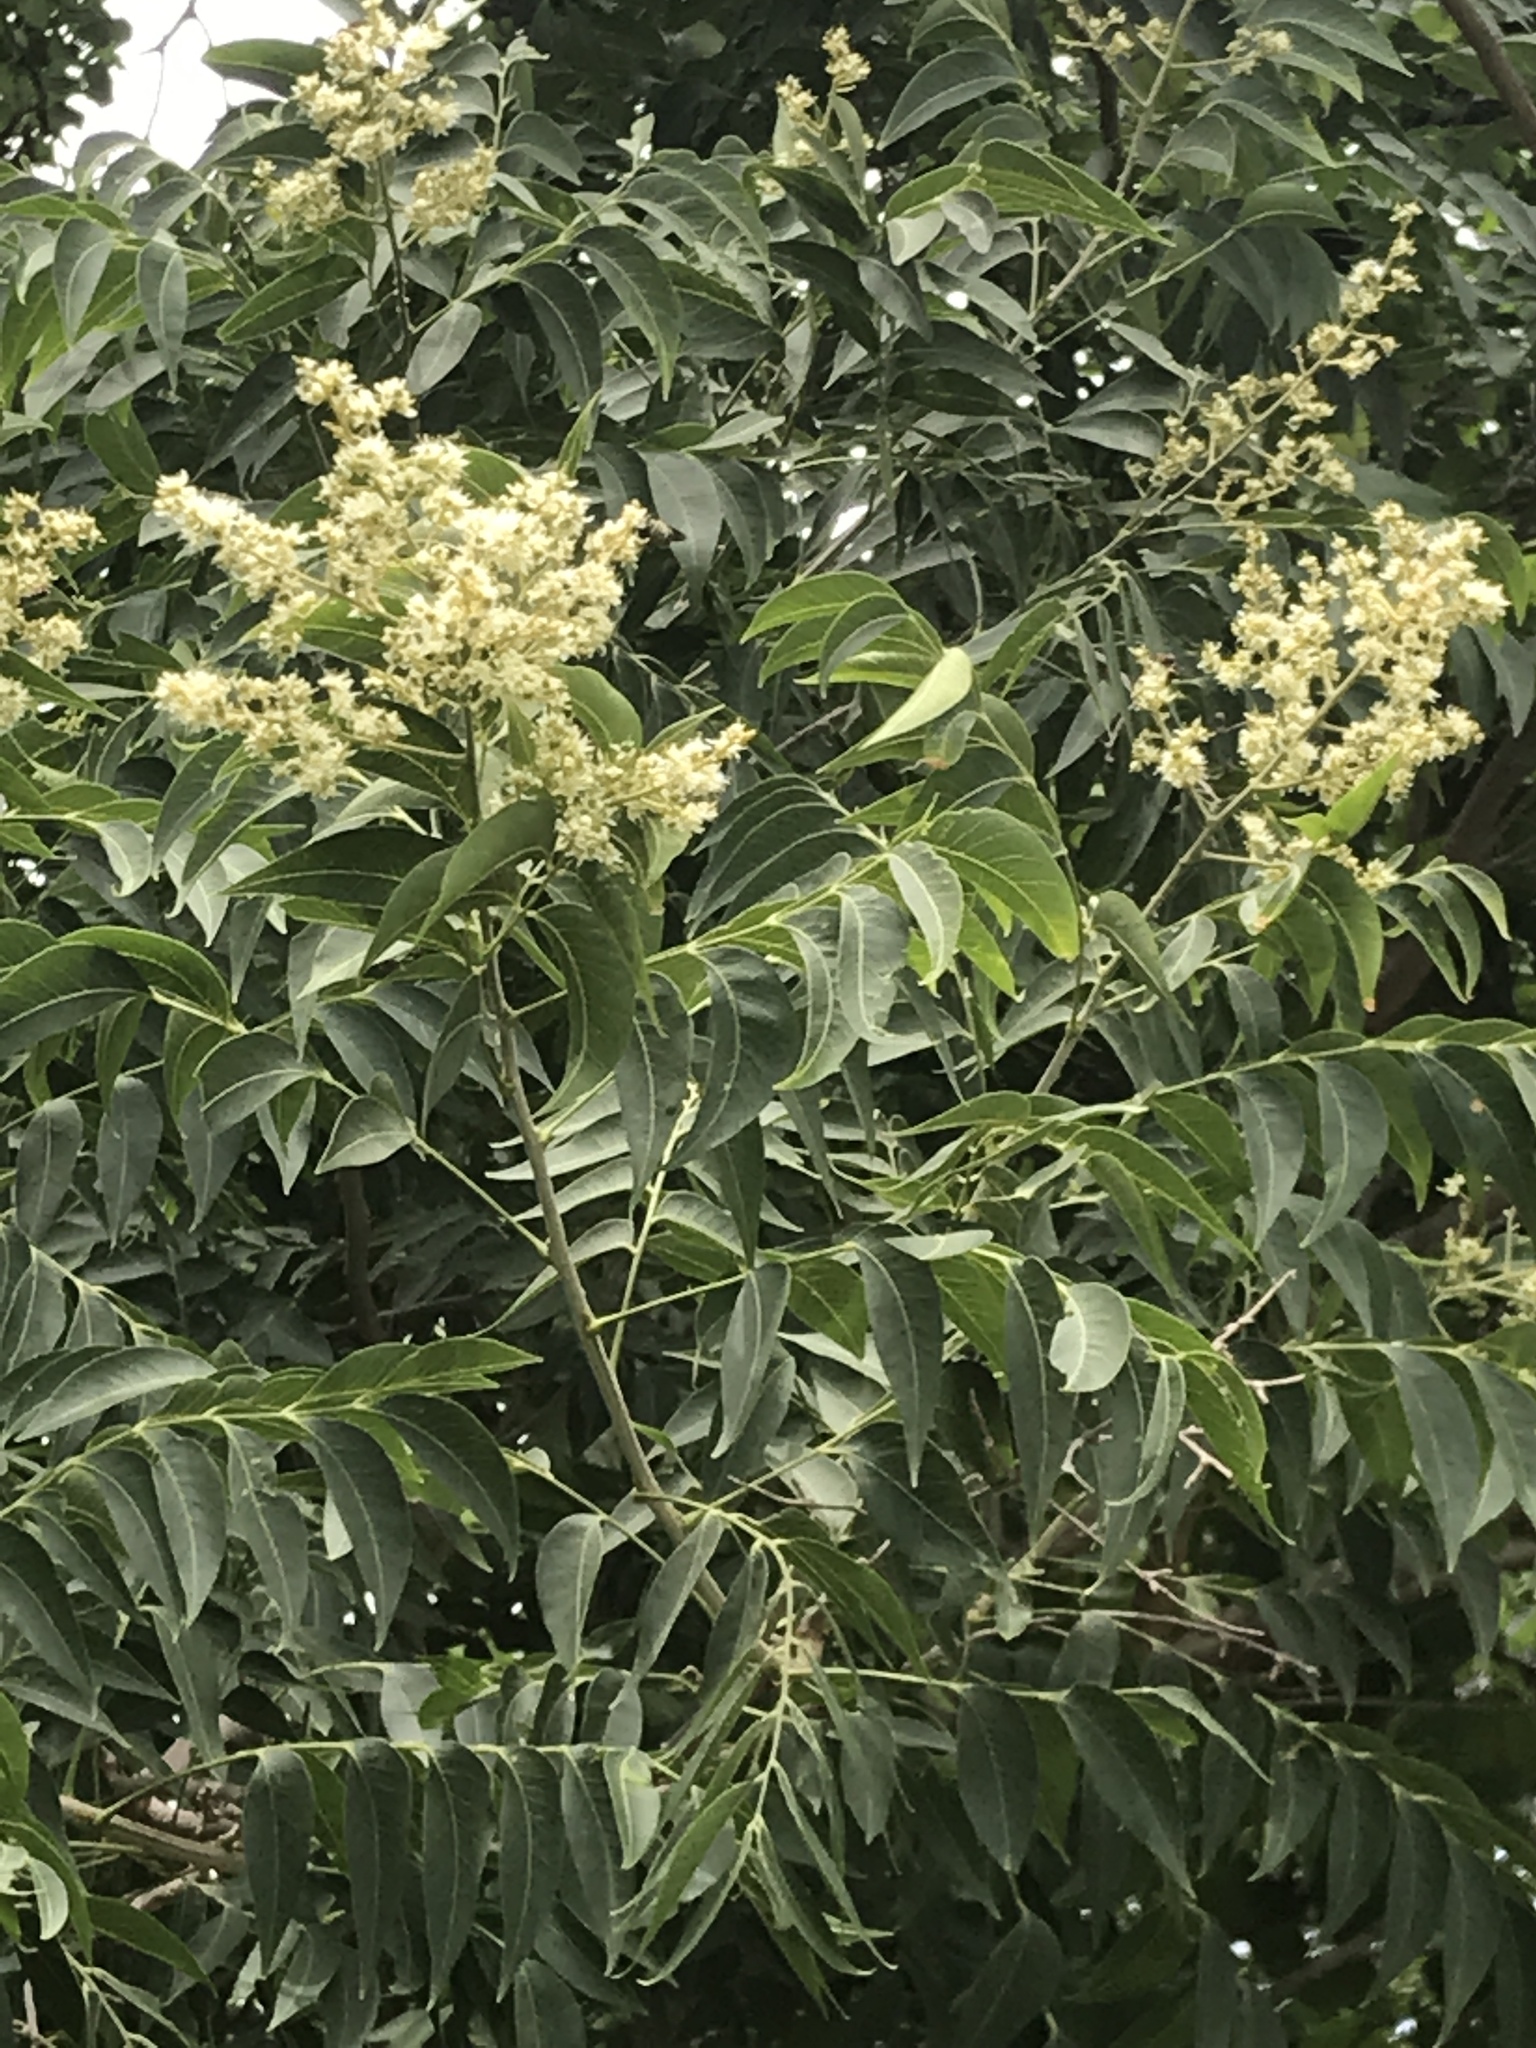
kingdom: Plantae
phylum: Tracheophyta
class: Magnoliopsida
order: Sapindales
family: Sapindaceae
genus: Sapindus
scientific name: Sapindus drummondii
